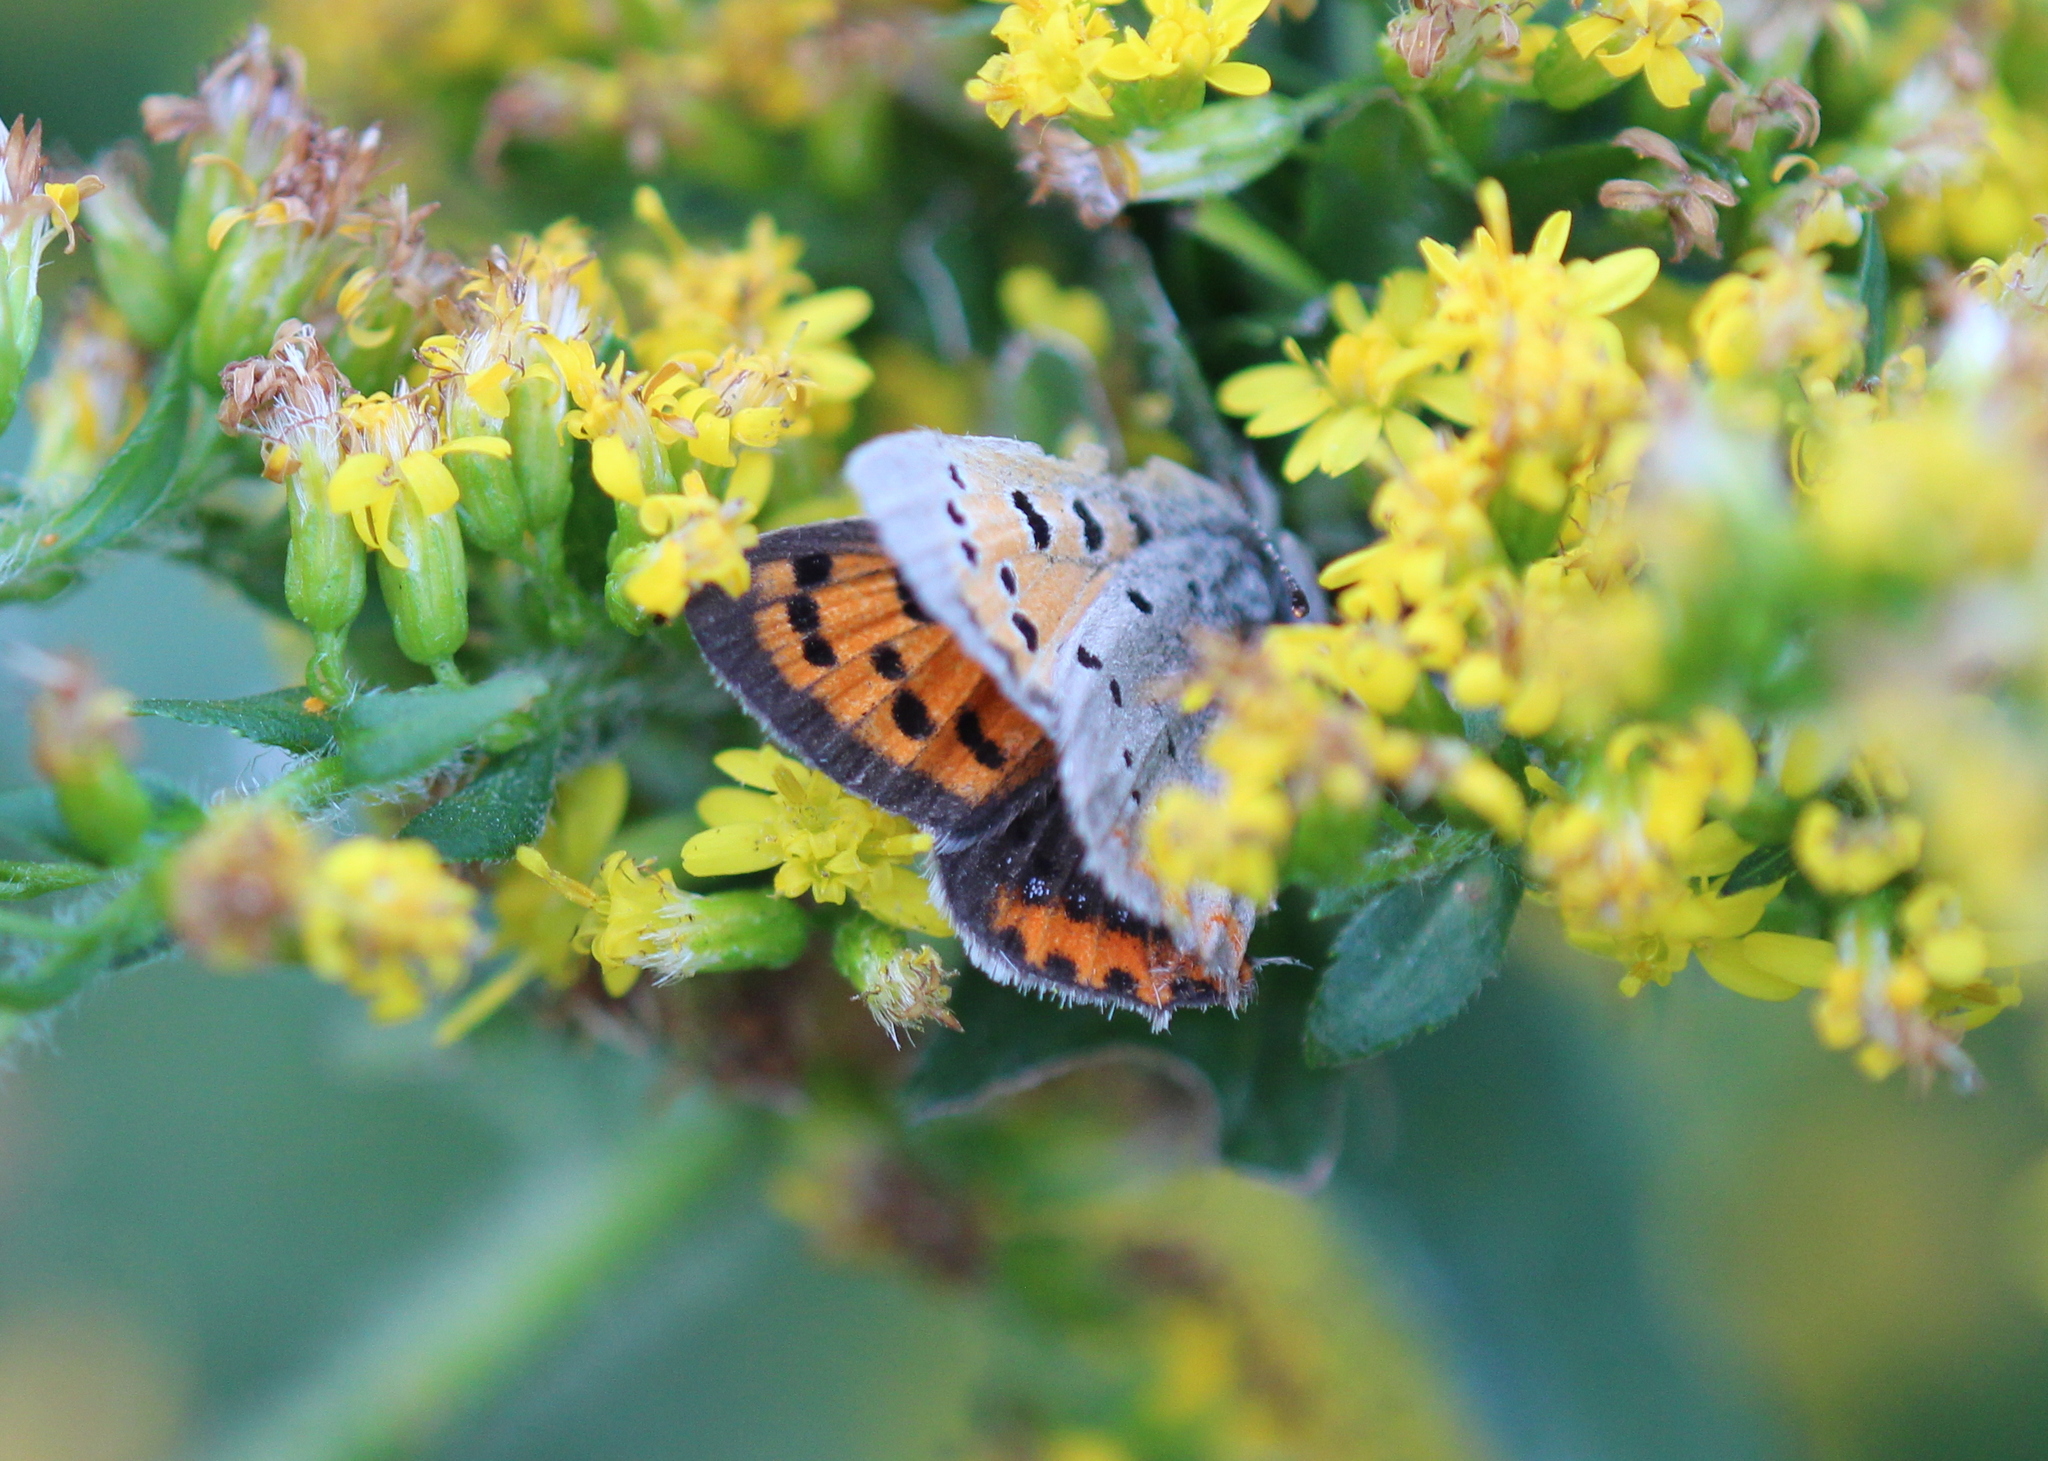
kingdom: Animalia
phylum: Arthropoda
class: Insecta
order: Lepidoptera
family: Lycaenidae
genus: Lycaena
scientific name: Lycaena hypophlaeas
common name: American copper
